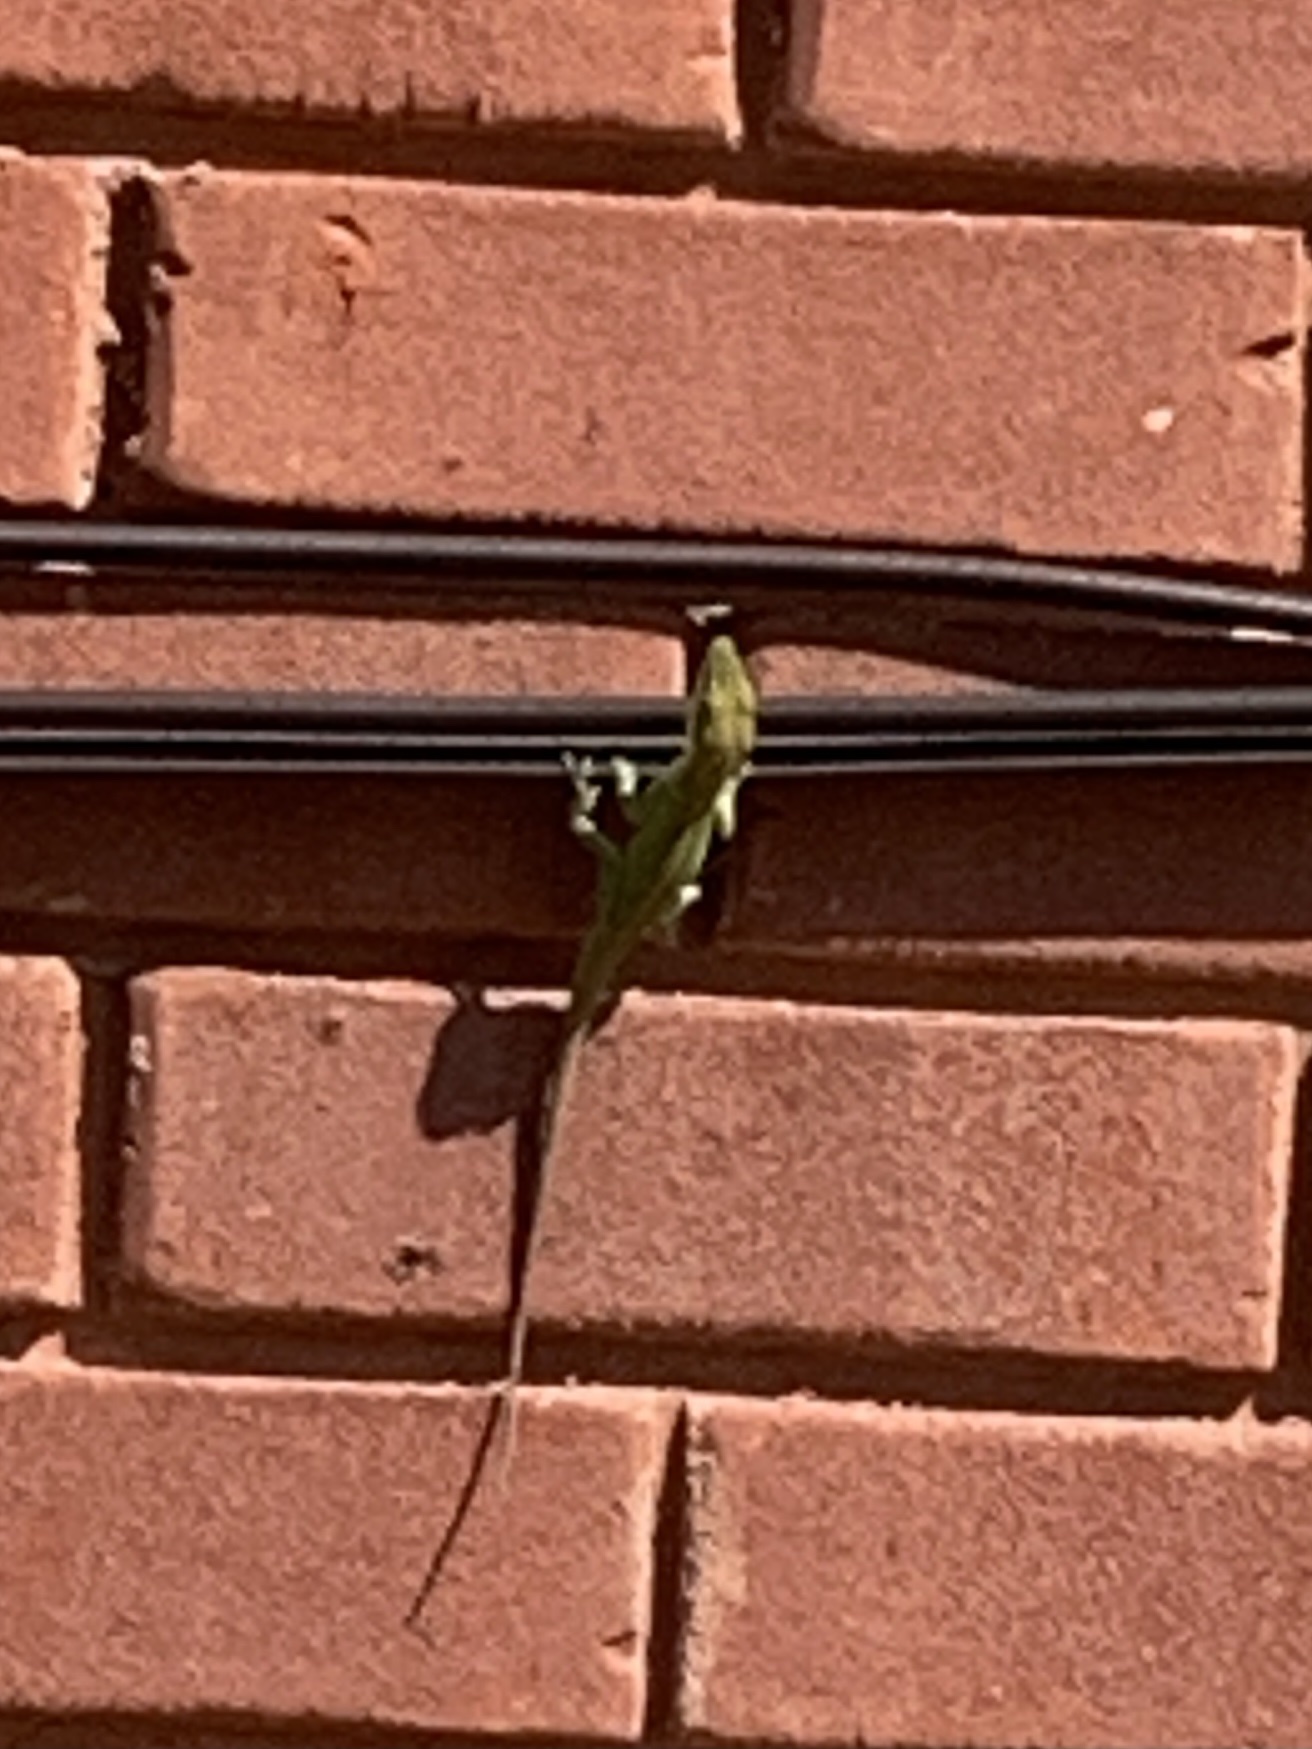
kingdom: Animalia
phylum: Chordata
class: Squamata
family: Dactyloidae
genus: Anolis
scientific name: Anolis carolinensis
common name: Green anole
